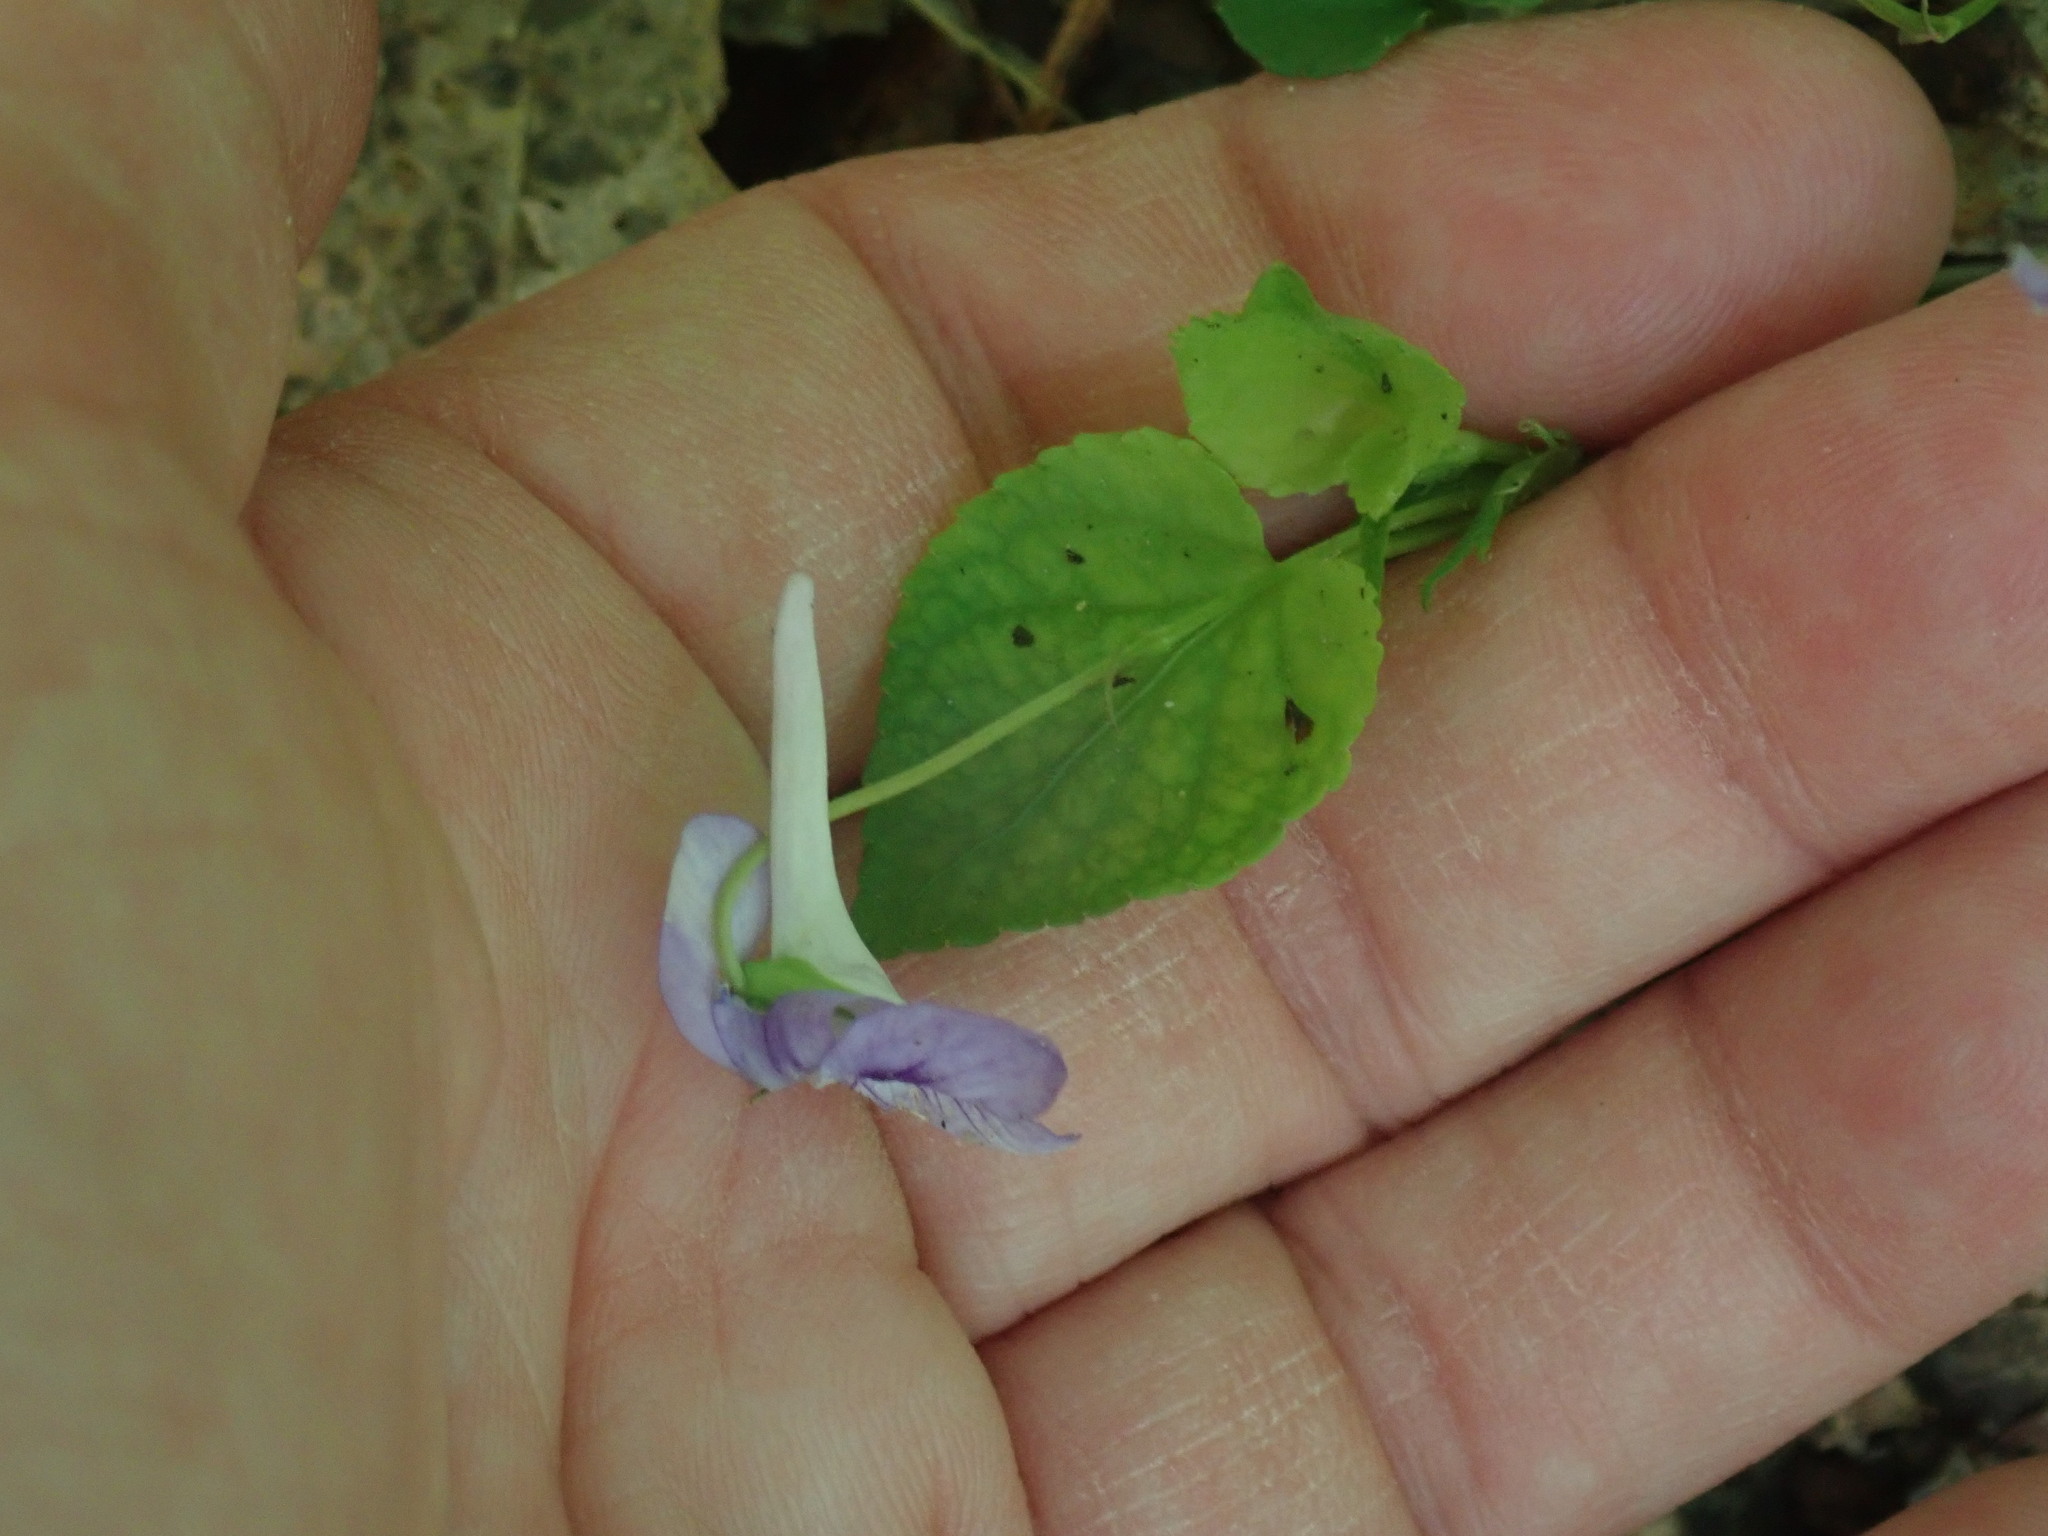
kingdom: Plantae
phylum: Tracheophyta
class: Magnoliopsida
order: Malpighiales
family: Violaceae
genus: Viola
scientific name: Viola rostrata
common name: Long-spur violet
